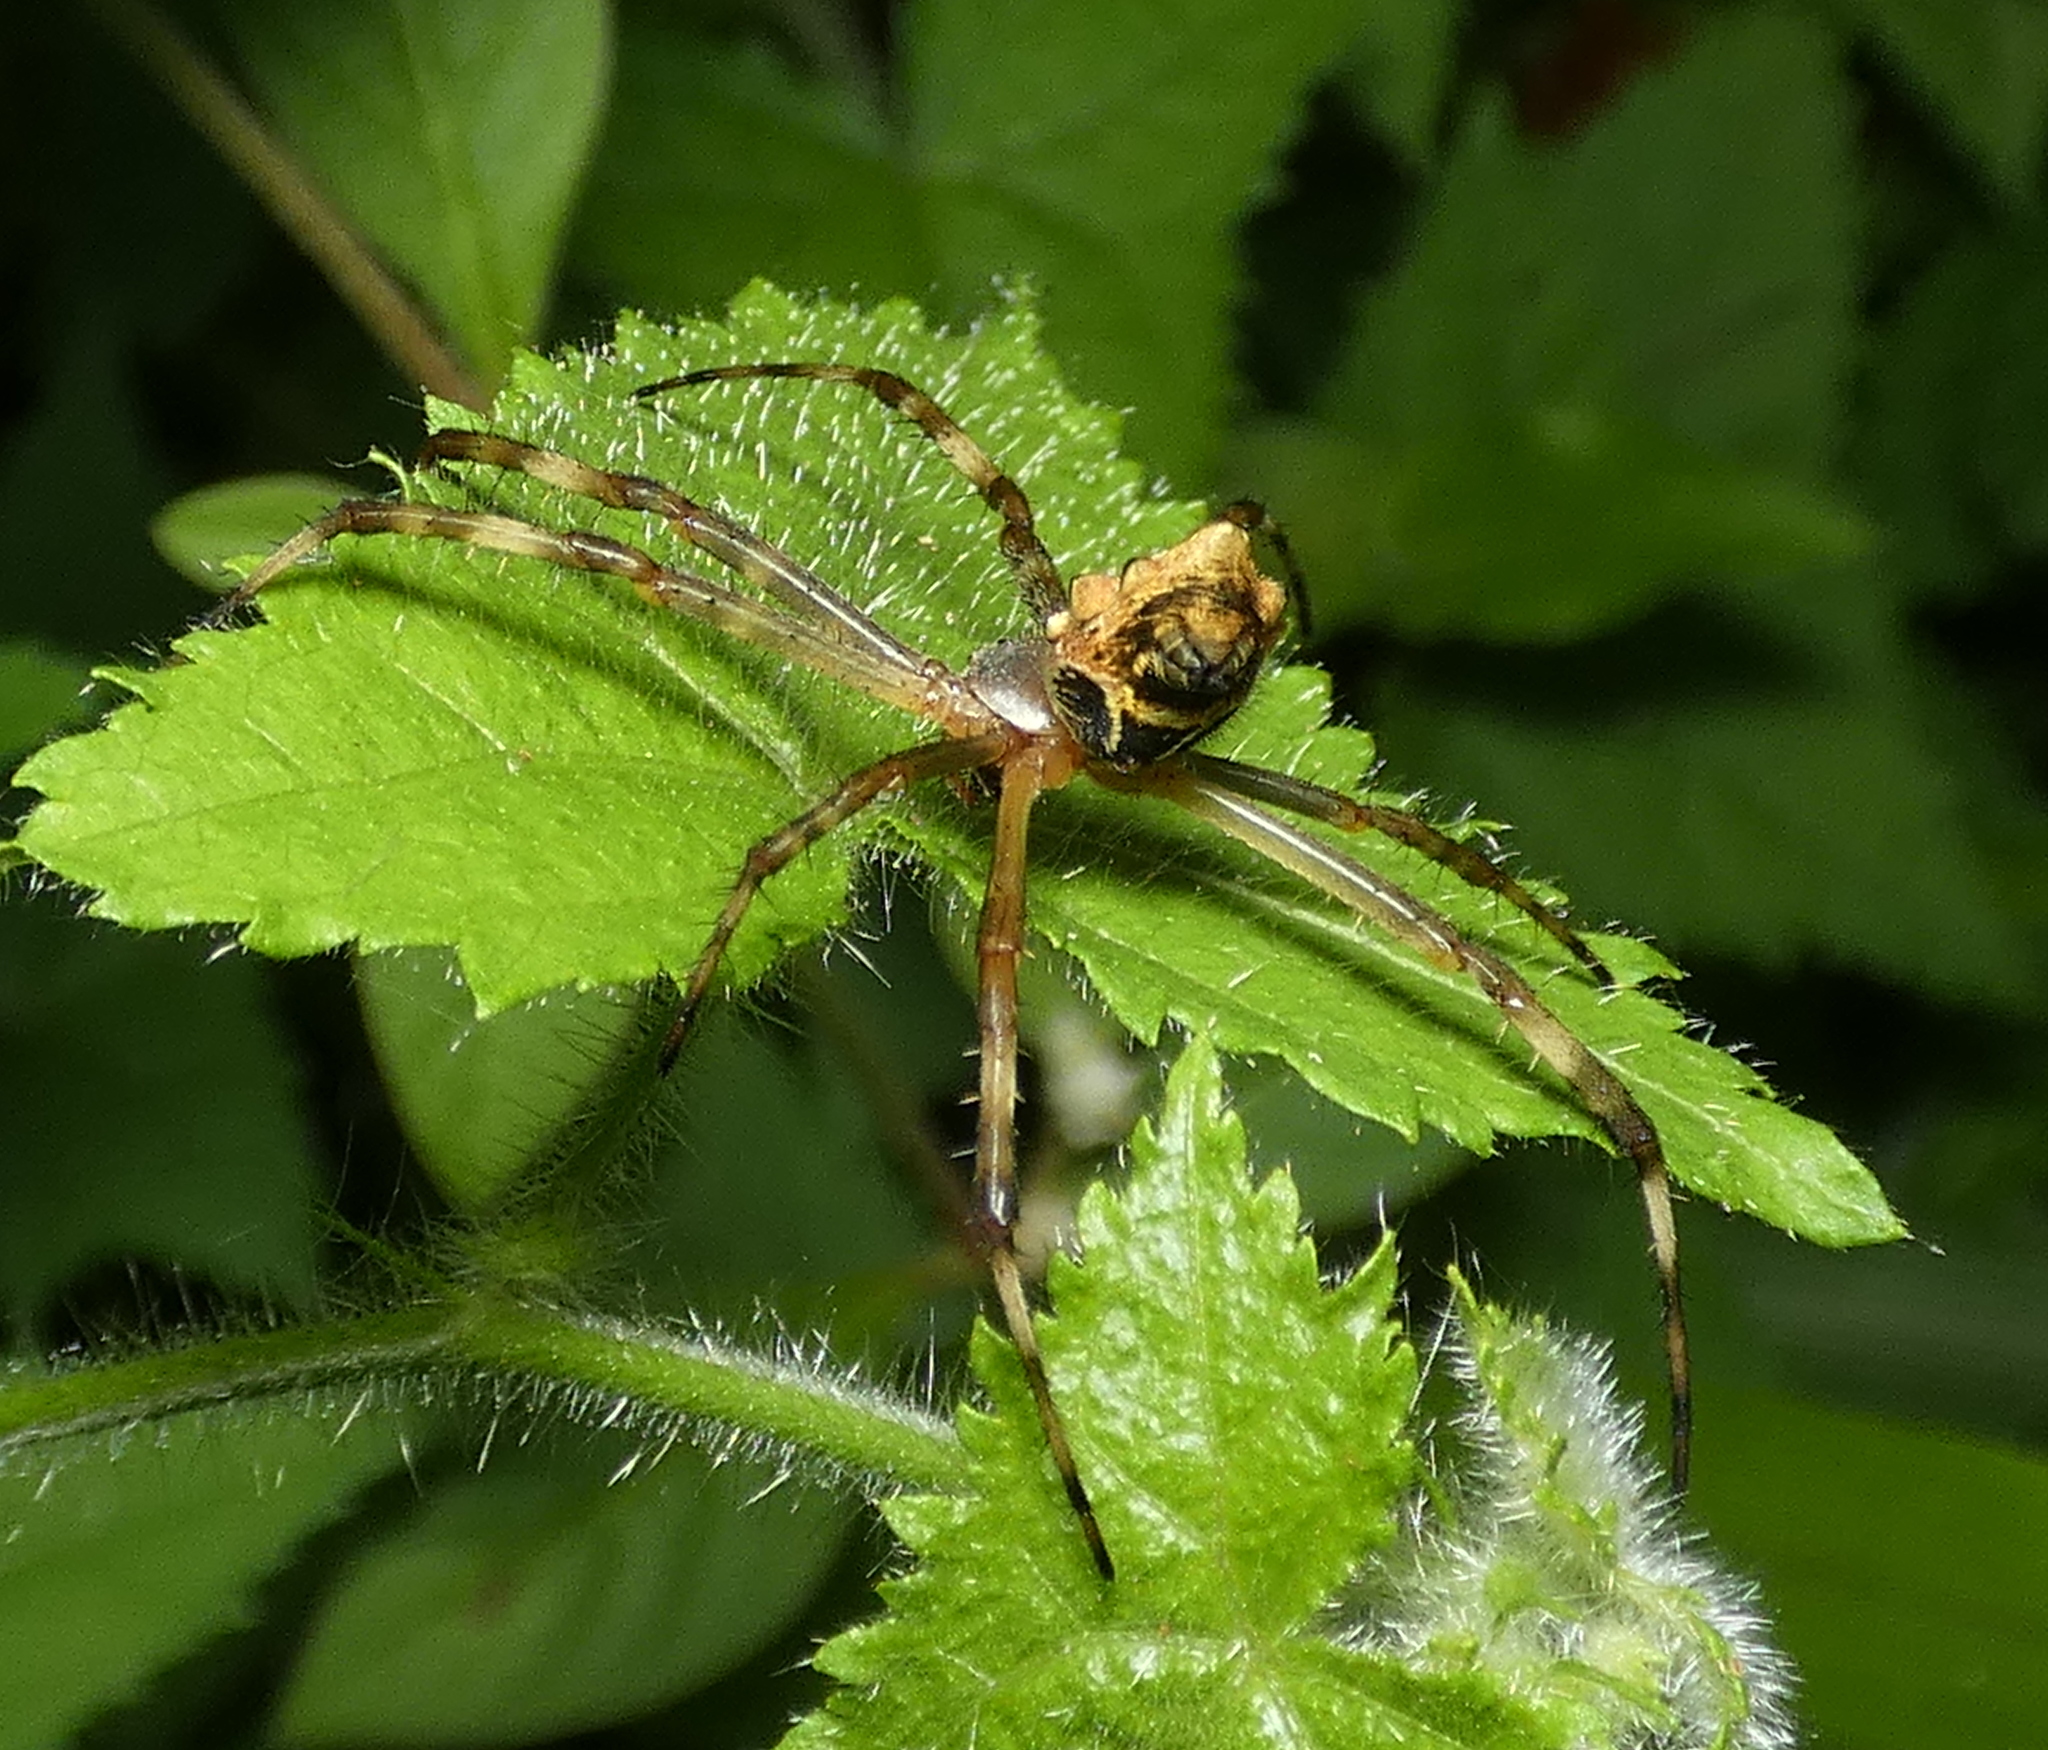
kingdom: Animalia
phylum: Arthropoda
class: Arachnida
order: Araneae
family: Araneidae
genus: Argiope
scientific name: Argiope argentata
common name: Orb weavers
